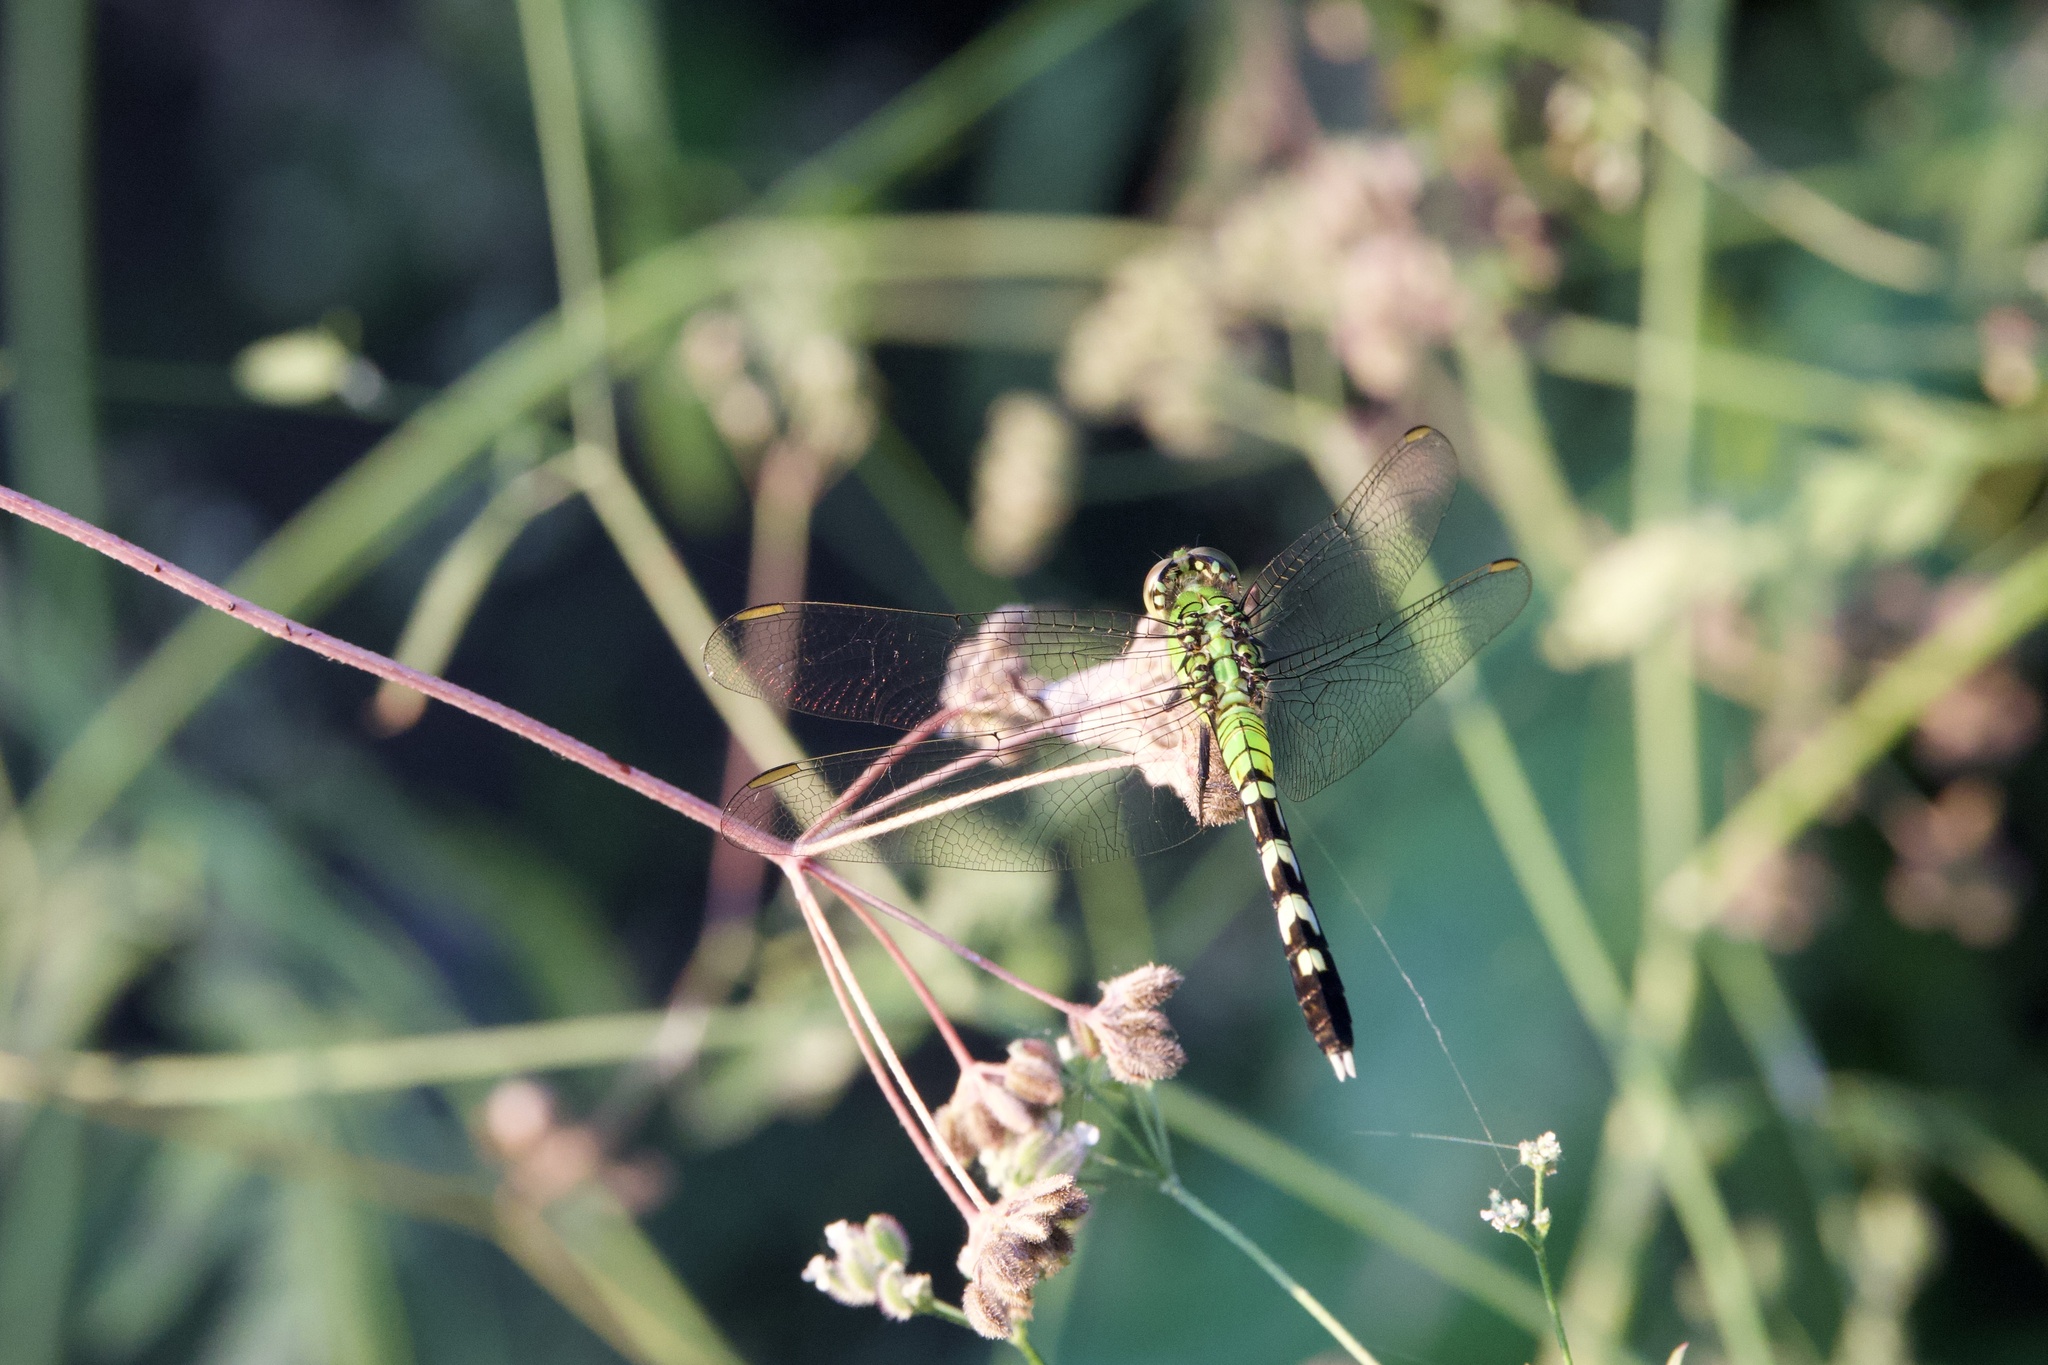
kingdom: Animalia
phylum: Arthropoda
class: Insecta
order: Odonata
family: Libellulidae
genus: Erythemis
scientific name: Erythemis simplicicollis
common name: Eastern pondhawk
